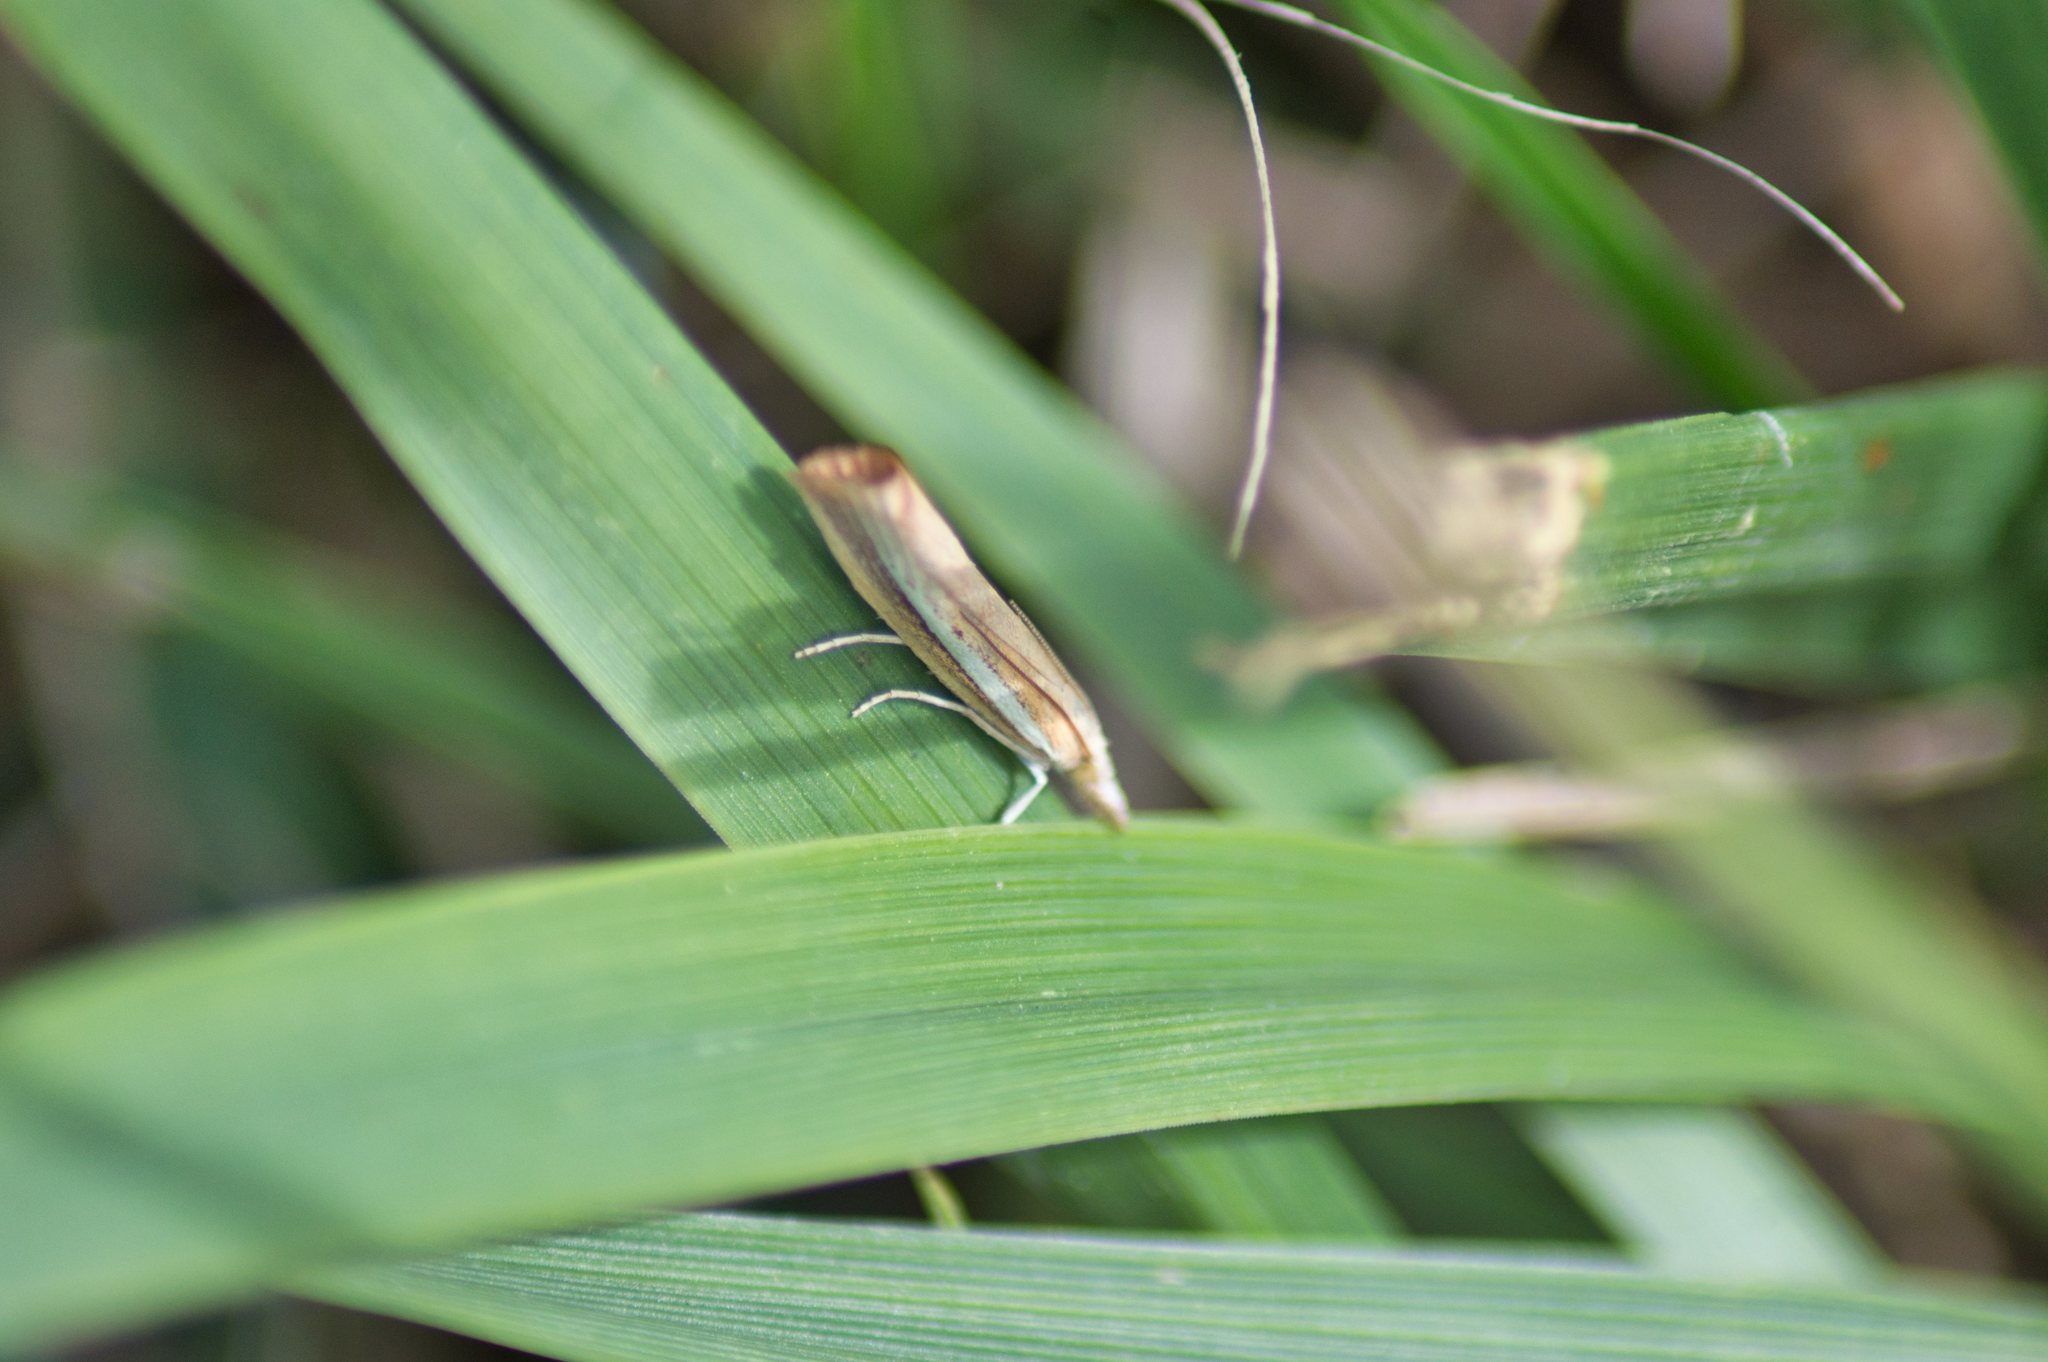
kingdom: Animalia
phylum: Arthropoda
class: Insecta
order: Lepidoptera
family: Crambidae
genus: Agriphila
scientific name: Agriphila tristellus
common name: Common grass-veneer
